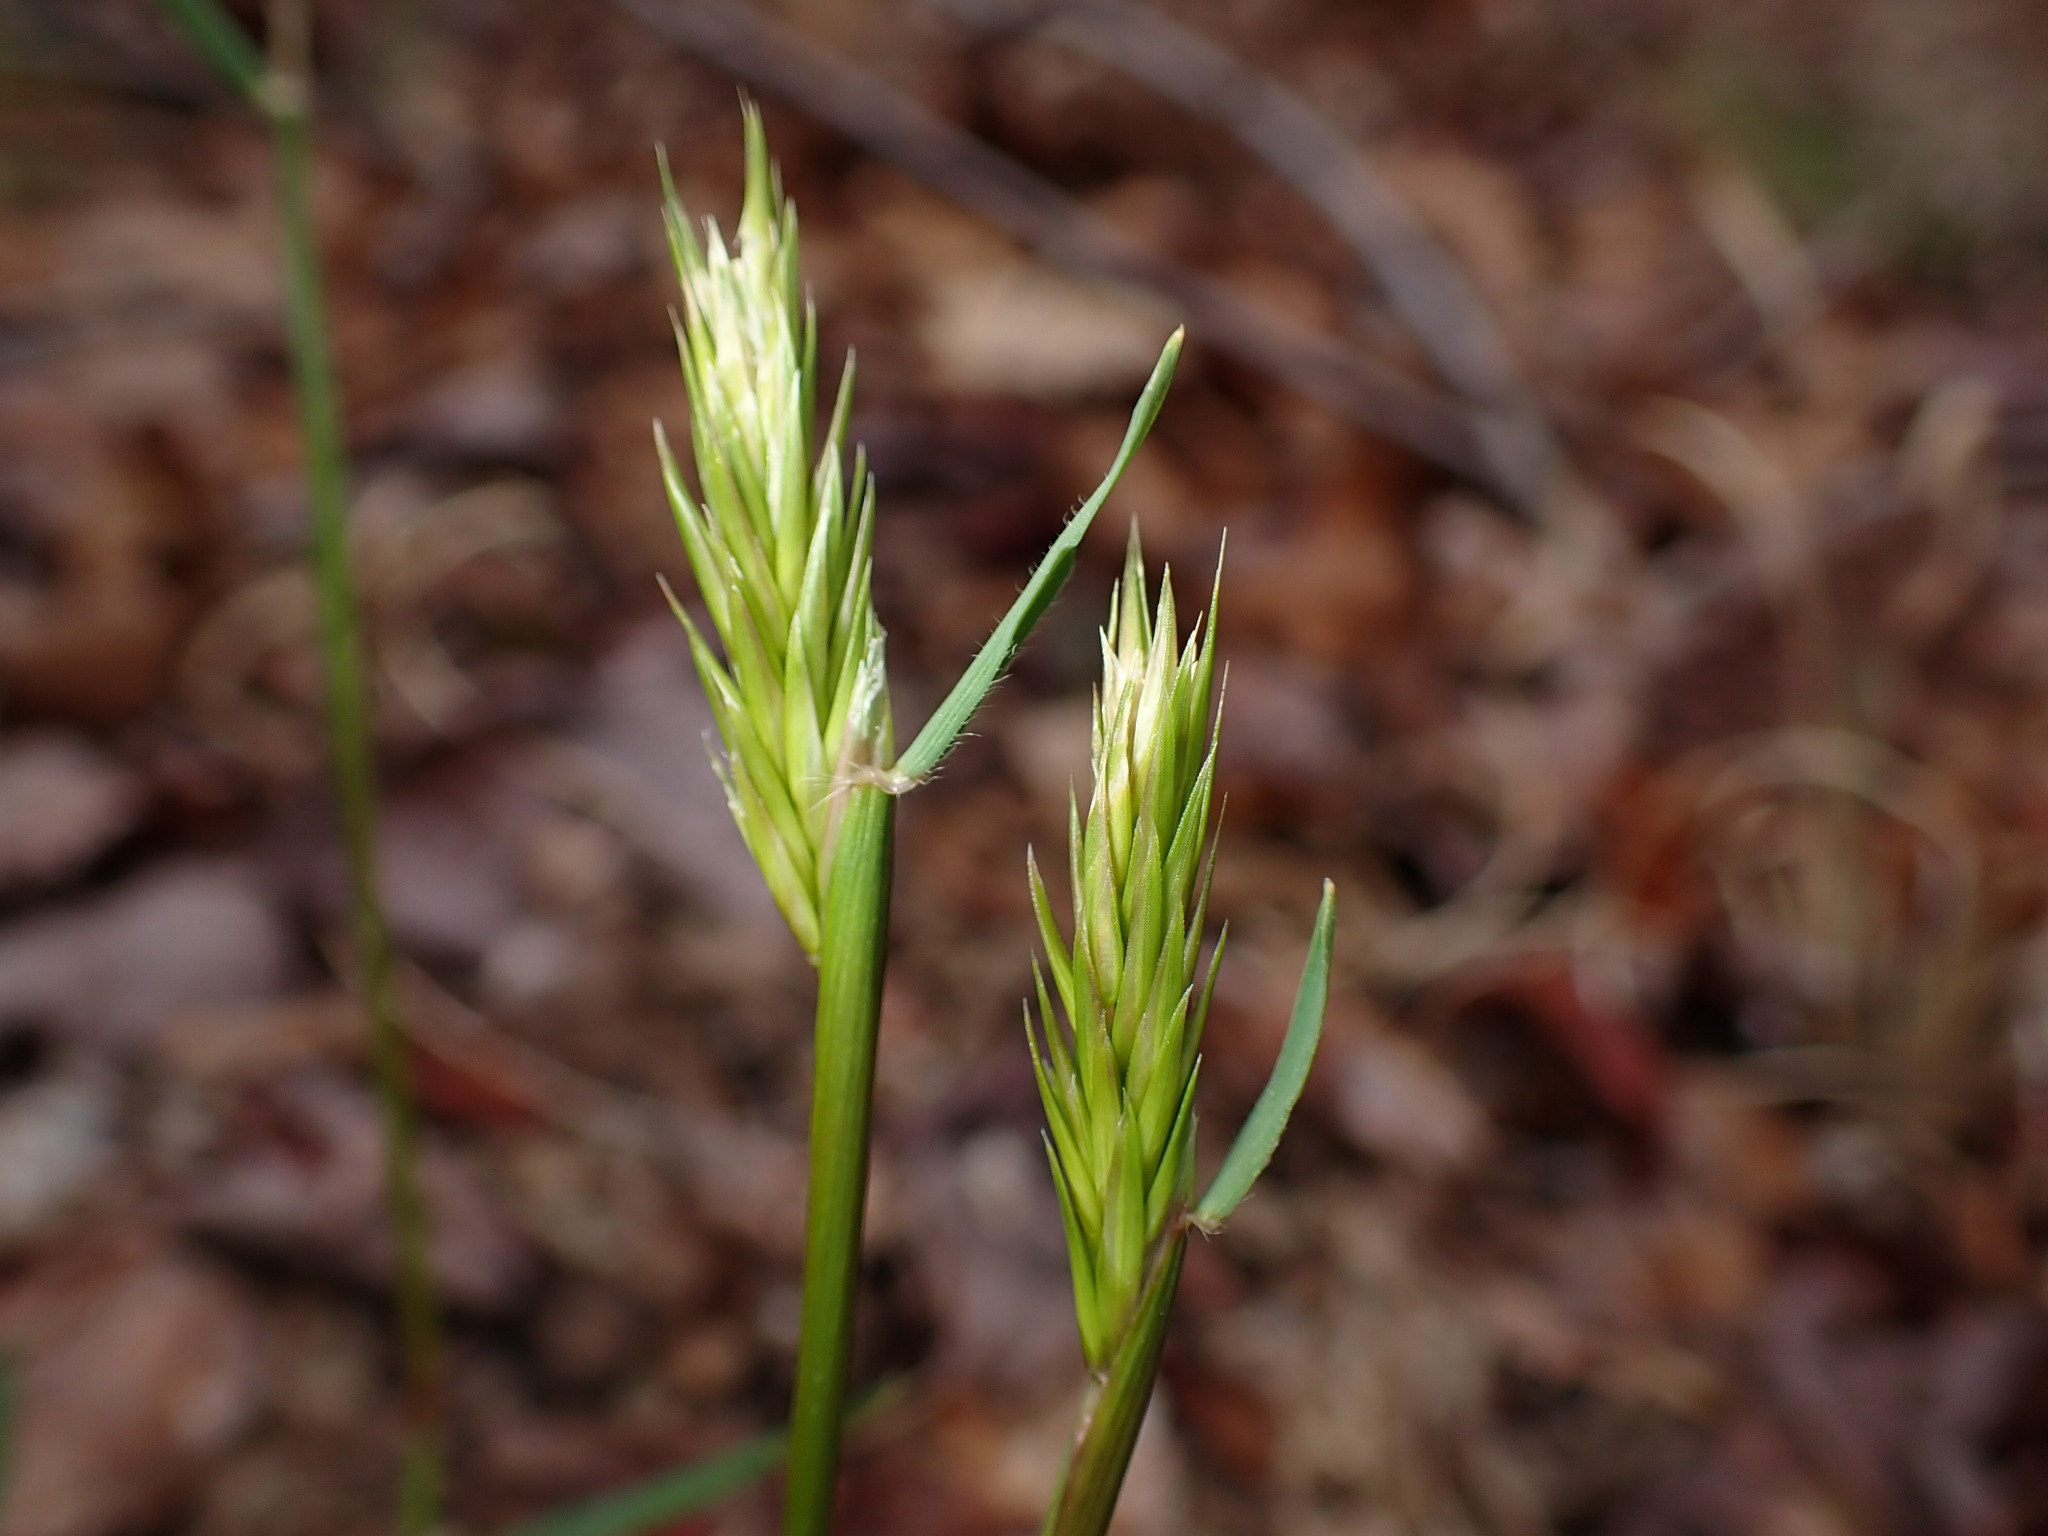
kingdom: Plantae
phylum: Tracheophyta
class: Liliopsida
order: Poales
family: Poaceae
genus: Anthoxanthum
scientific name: Anthoxanthum odoratum
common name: Sweet vernalgrass
